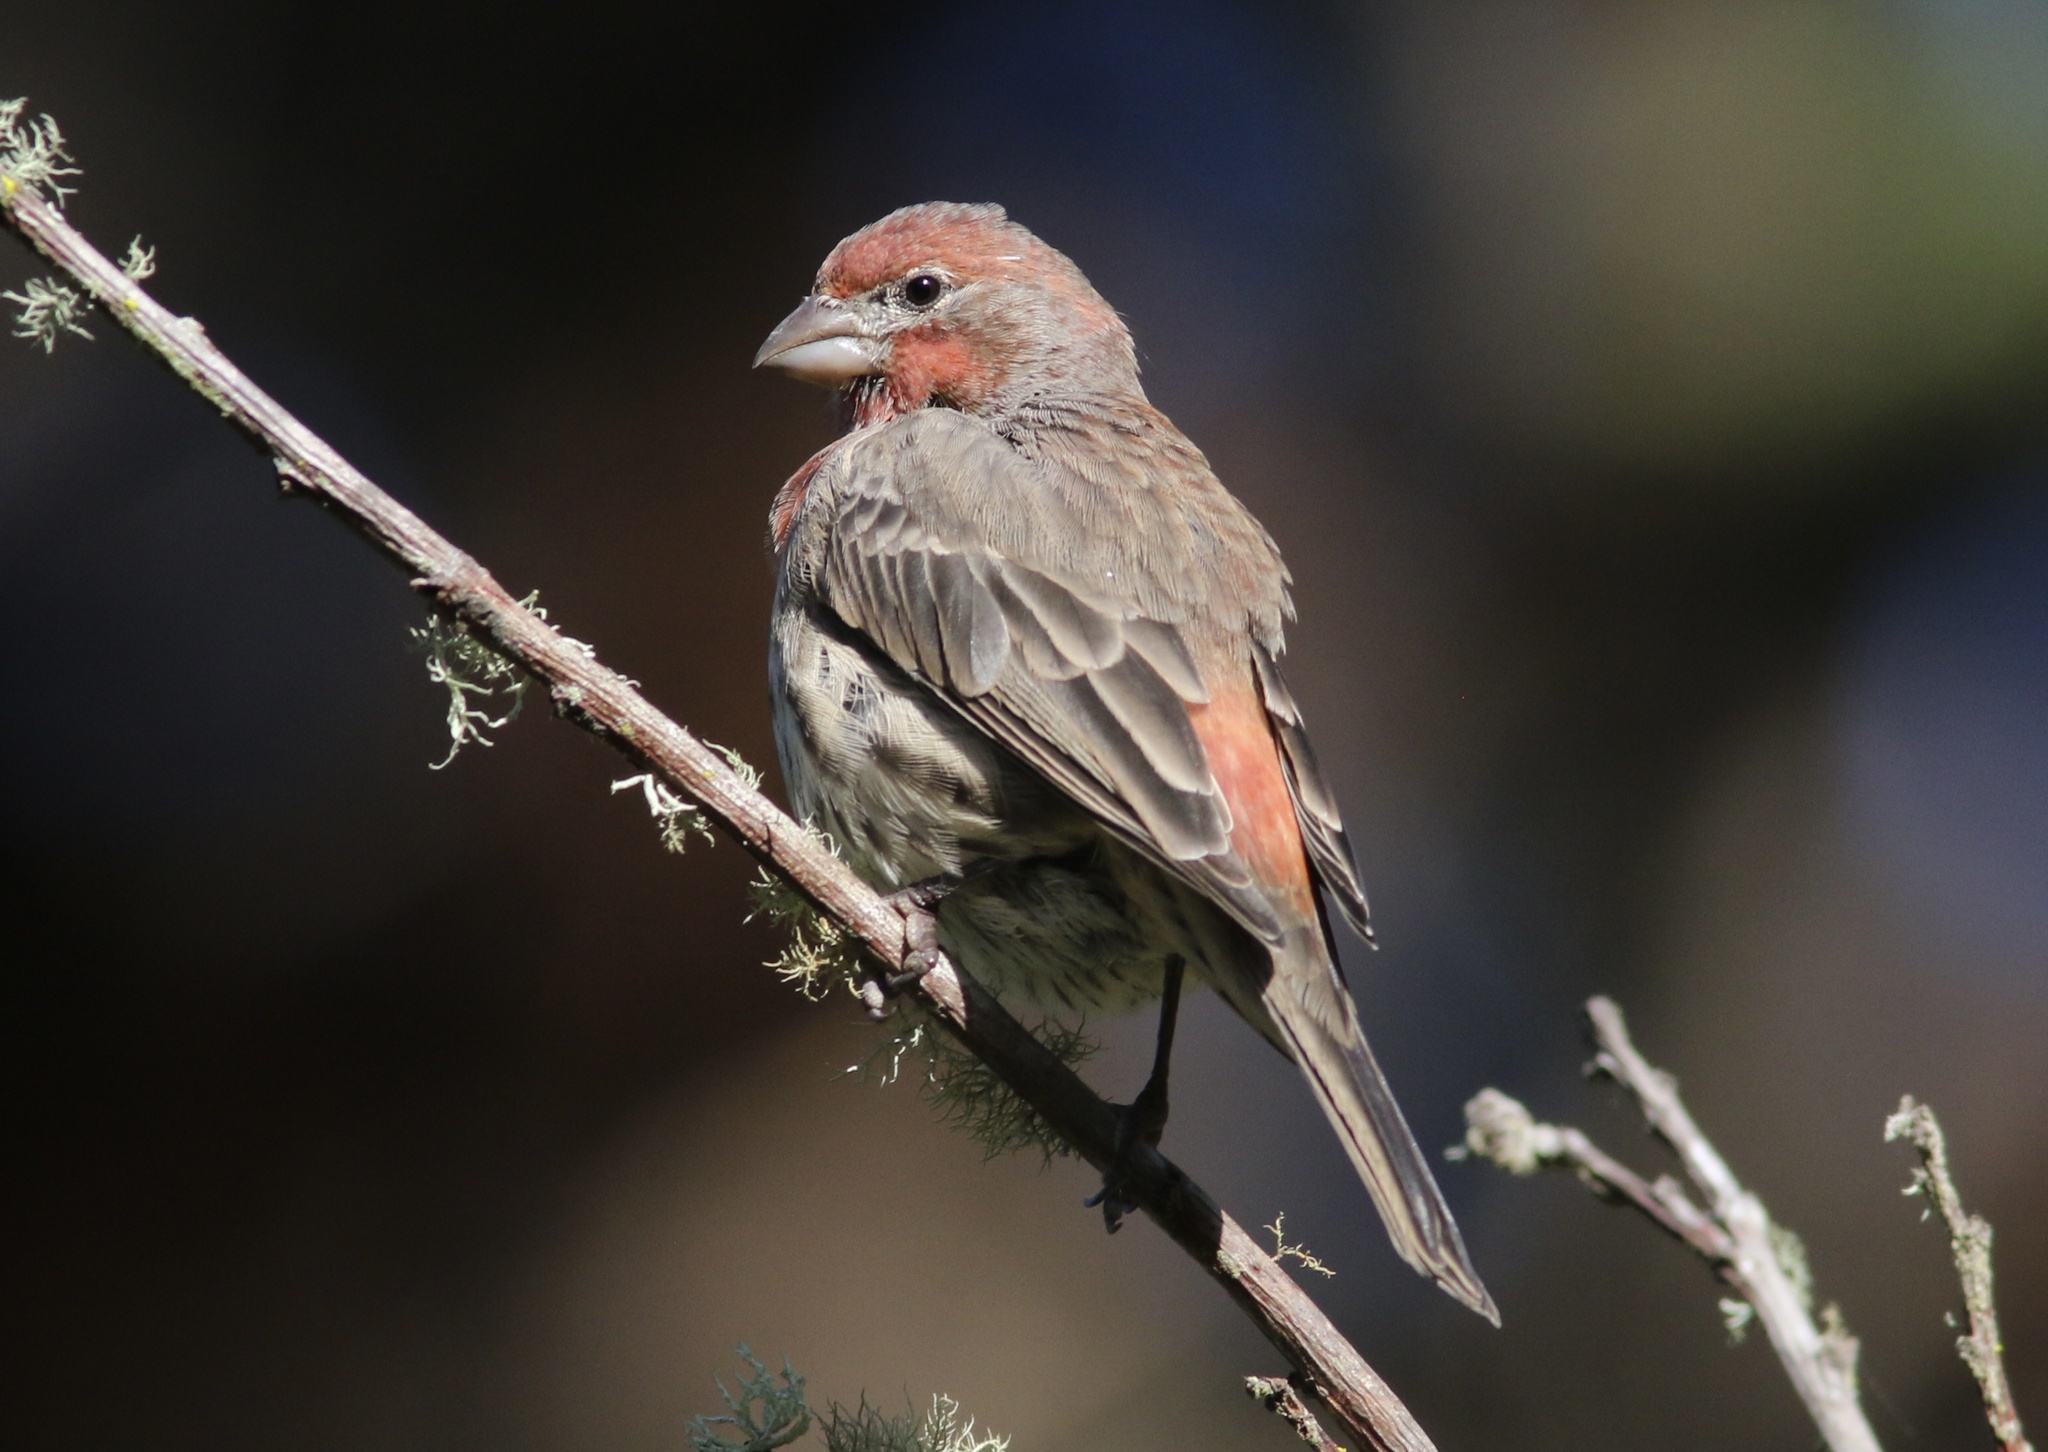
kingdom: Animalia
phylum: Chordata
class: Aves
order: Passeriformes
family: Fringillidae
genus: Haemorhous
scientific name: Haemorhous mexicanus
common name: House finch
